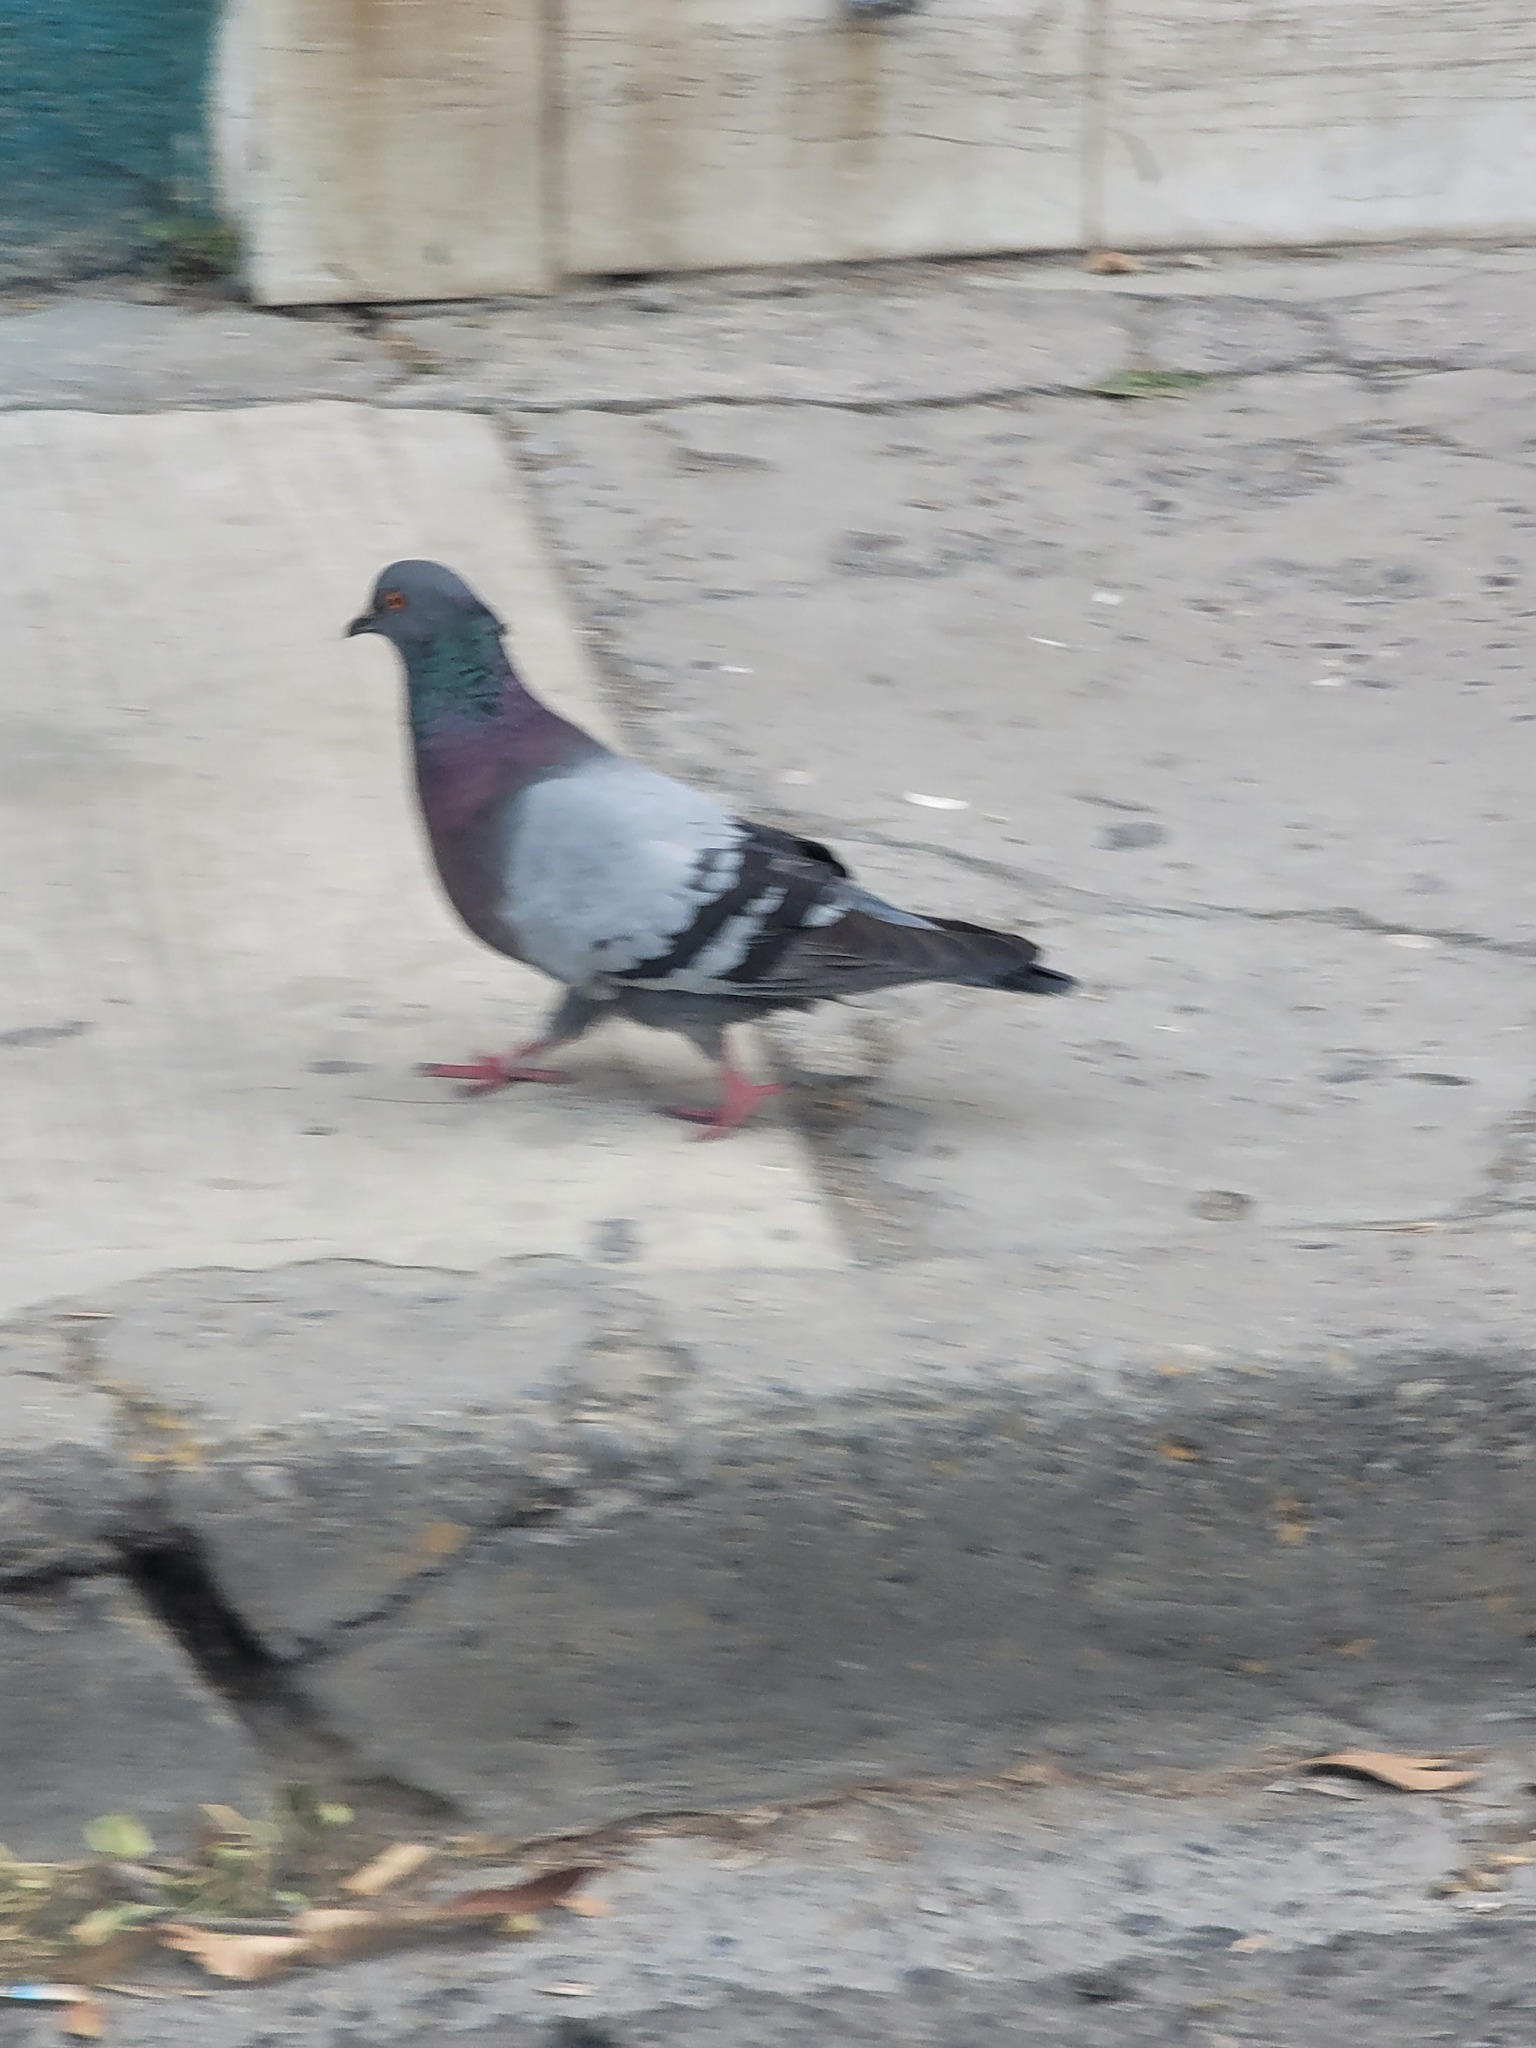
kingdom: Animalia
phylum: Chordata
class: Aves
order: Columbiformes
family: Columbidae
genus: Columba
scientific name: Columba livia
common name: Rock pigeon
